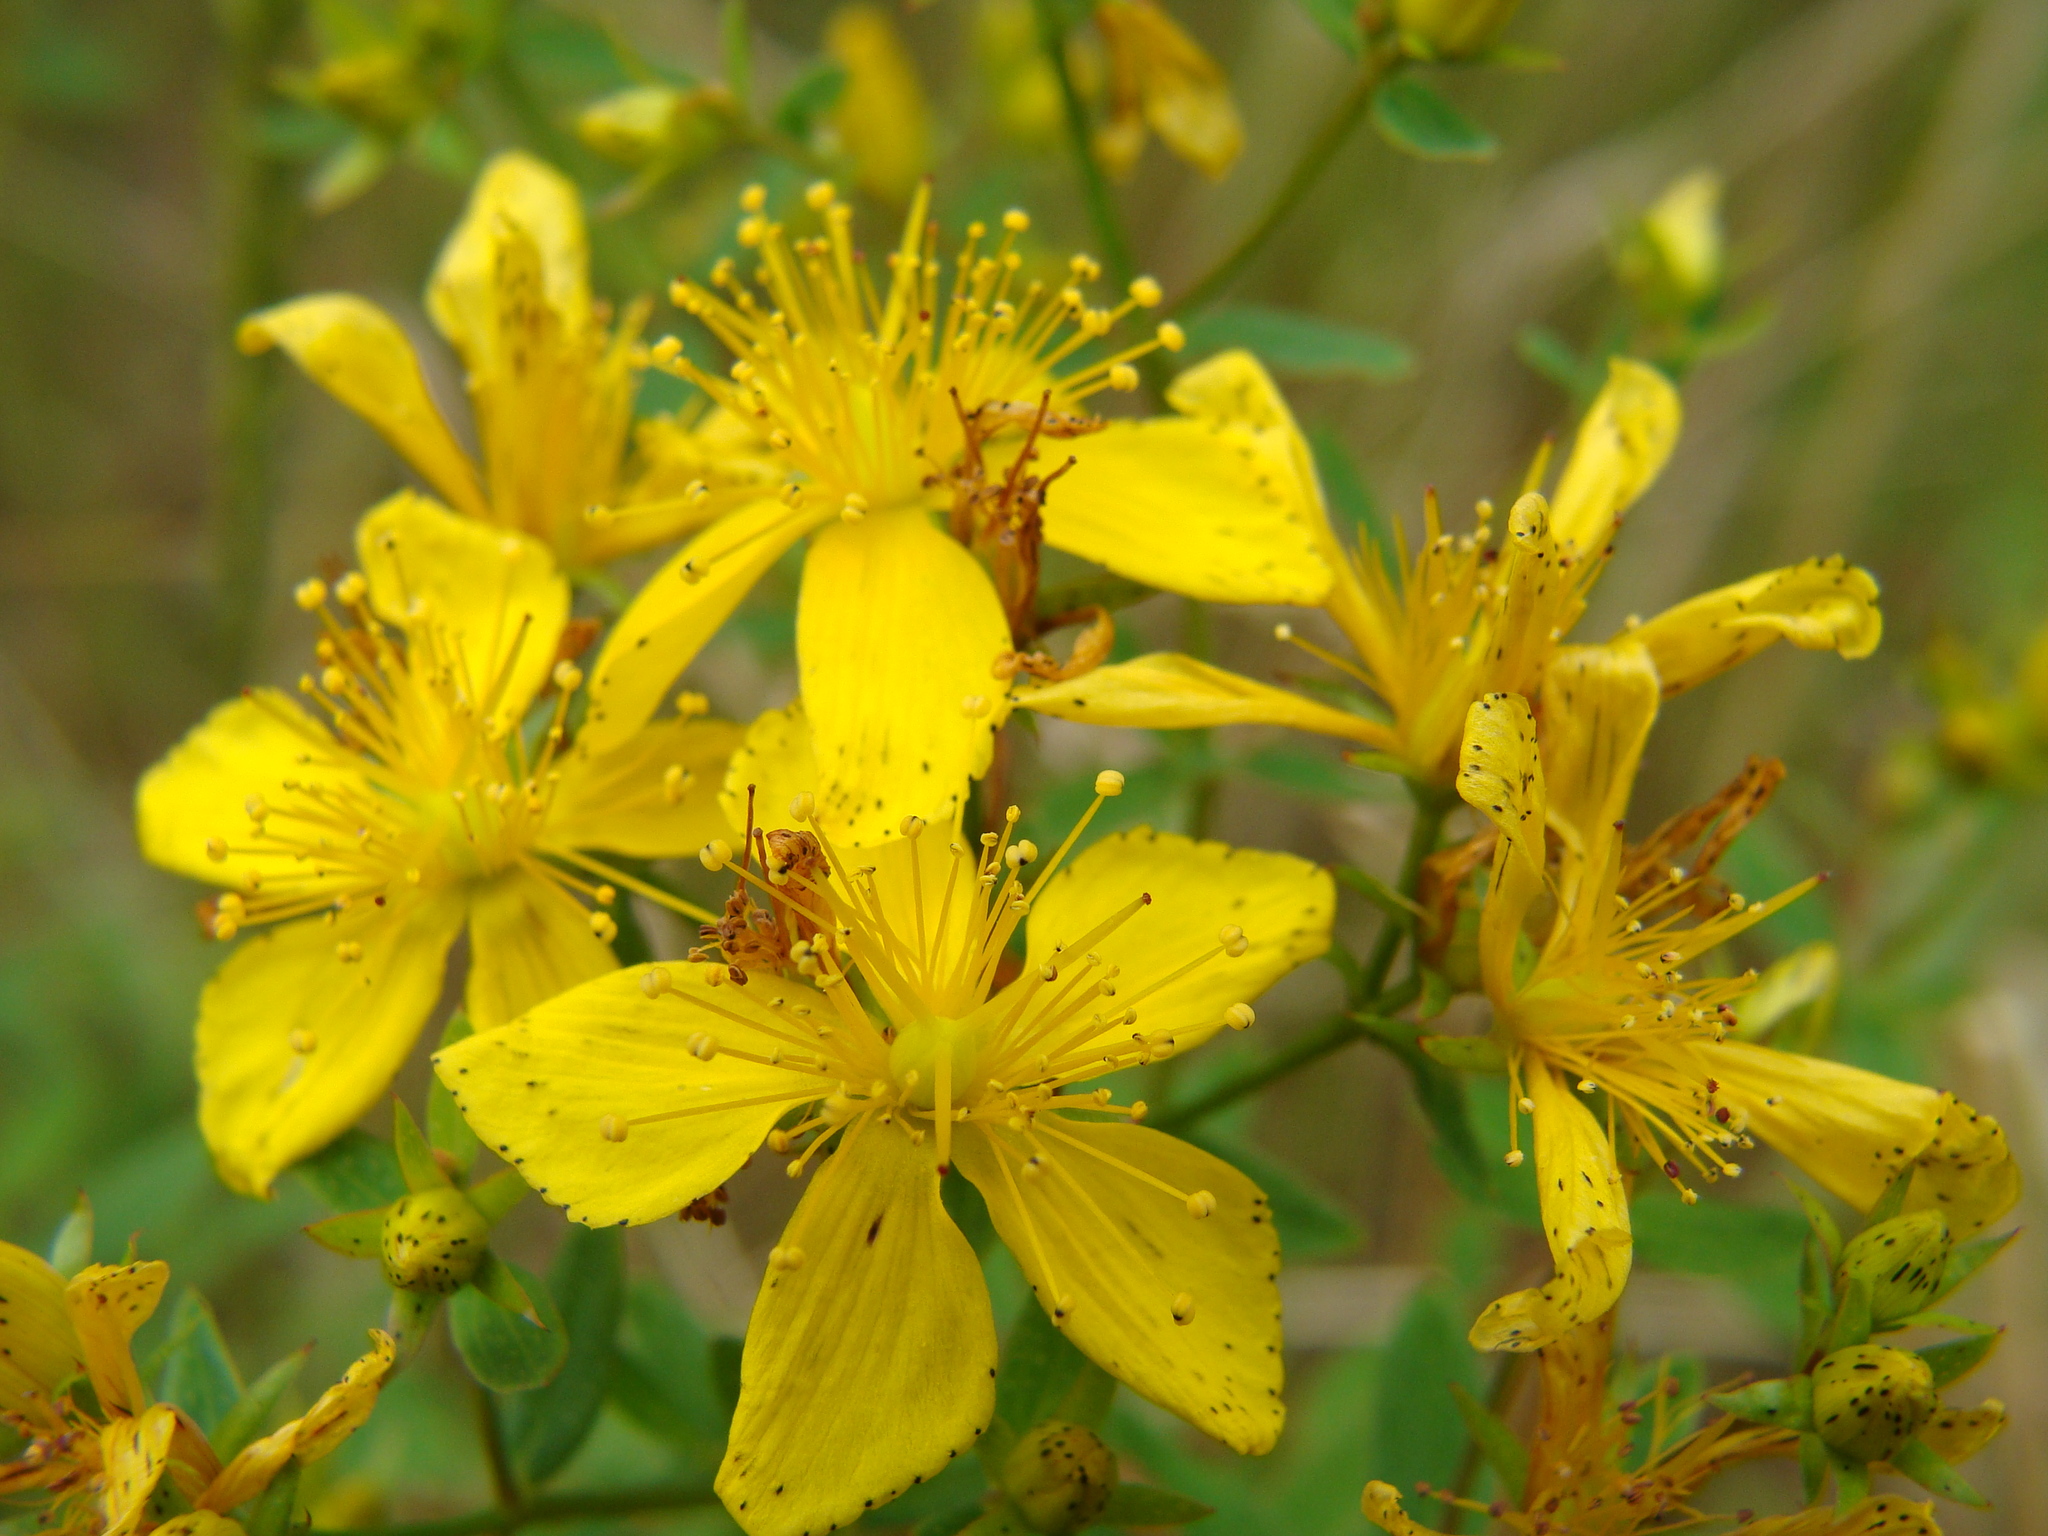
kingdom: Plantae
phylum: Tracheophyta
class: Magnoliopsida
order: Malpighiales
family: Hypericaceae
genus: Hypericum
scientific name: Hypericum perforatum
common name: Common st. johnswort
